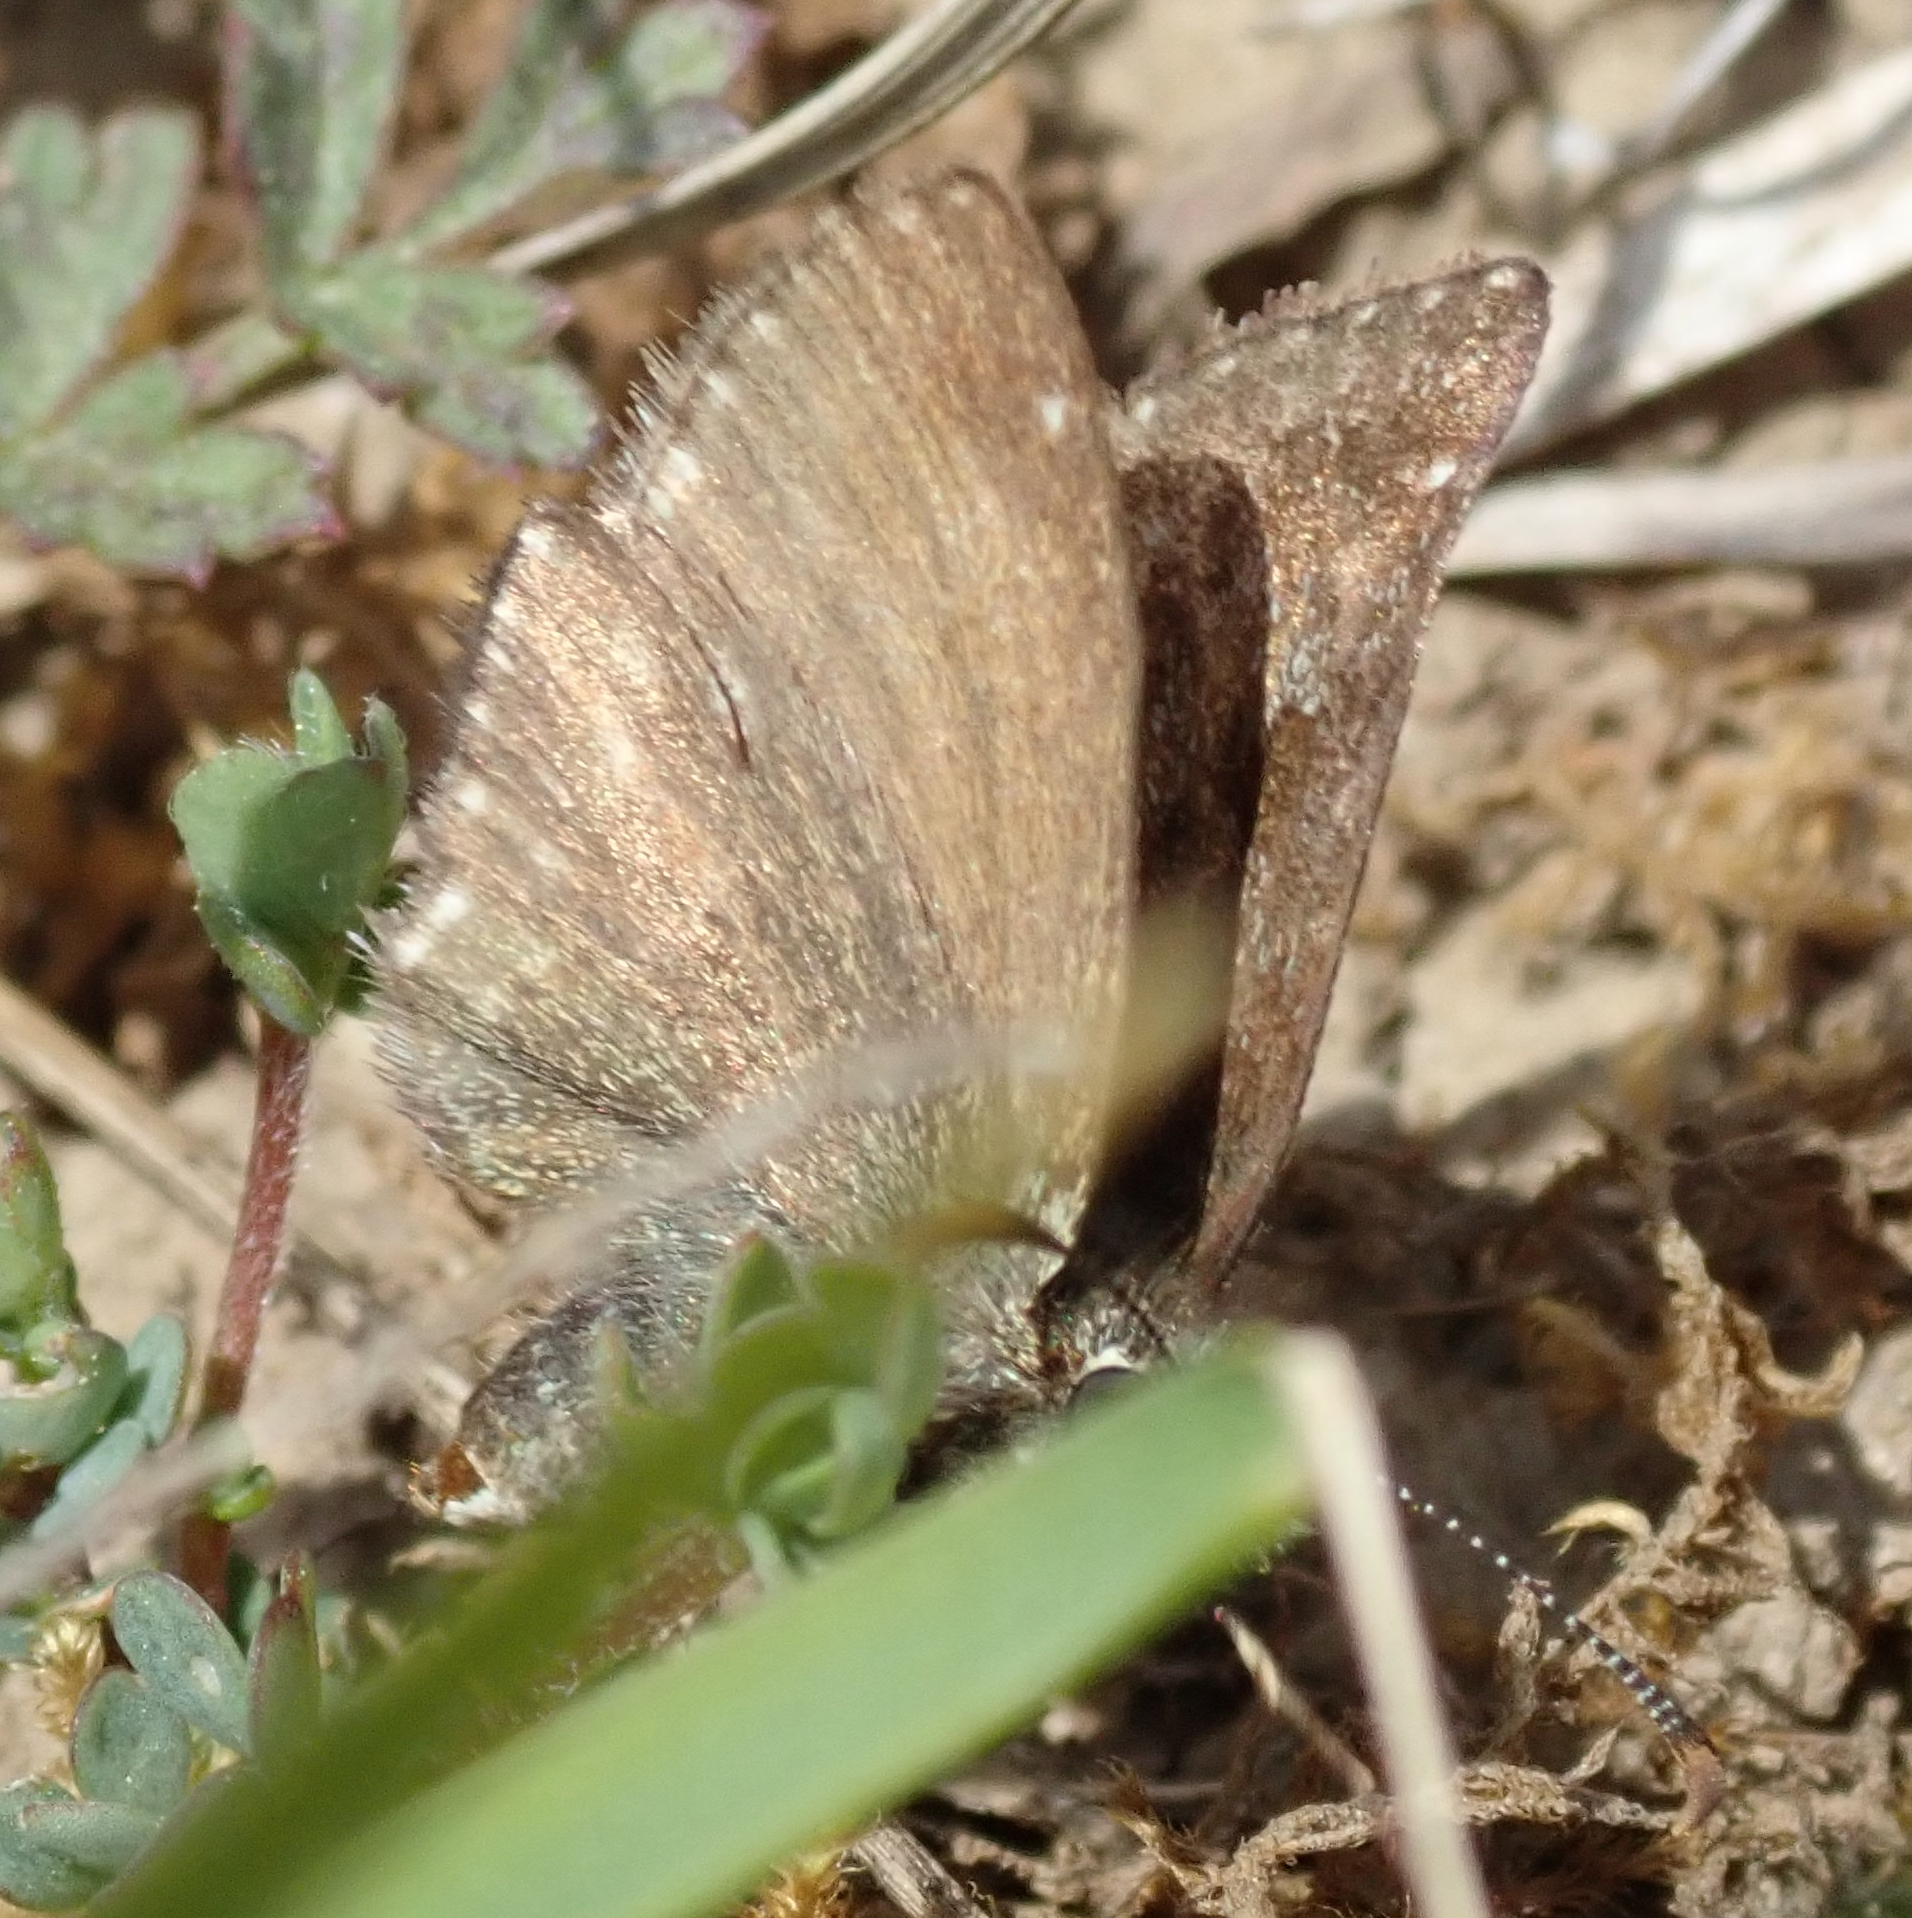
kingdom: Animalia
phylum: Arthropoda
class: Insecta
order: Lepidoptera
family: Hesperiidae
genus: Erynnis
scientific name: Erynnis tages
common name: Dingy skipper
